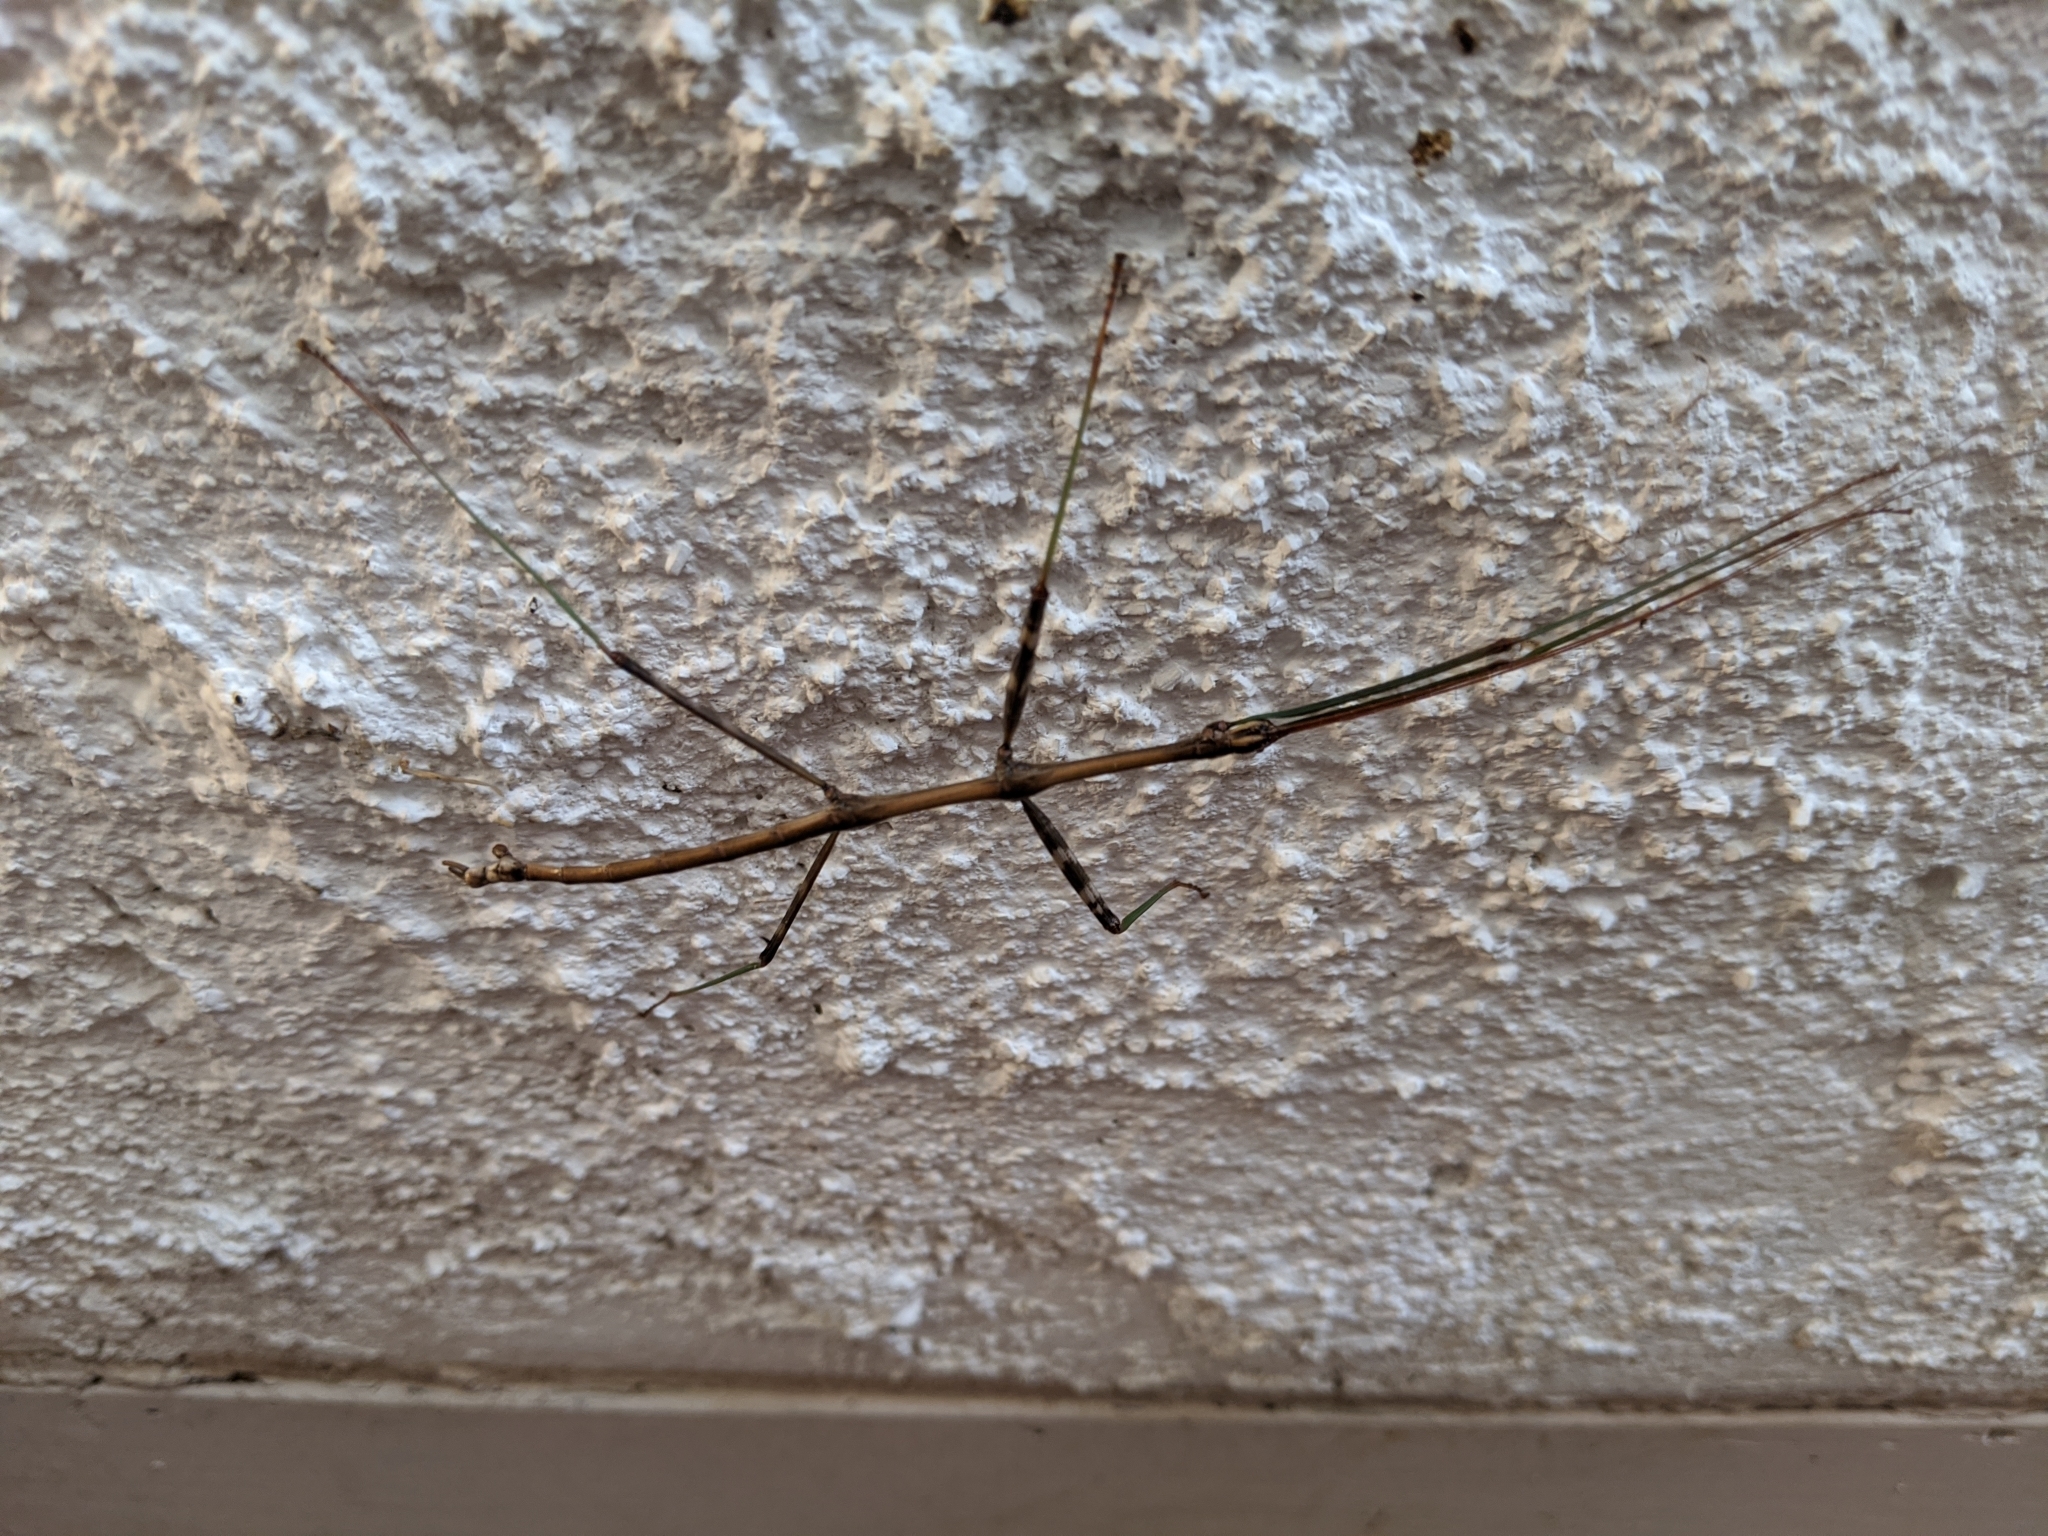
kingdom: Animalia
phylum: Arthropoda
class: Insecta
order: Phasmida
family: Diapheromeridae
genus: Diapheromera
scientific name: Diapheromera femorata
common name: Common american walkingstick
